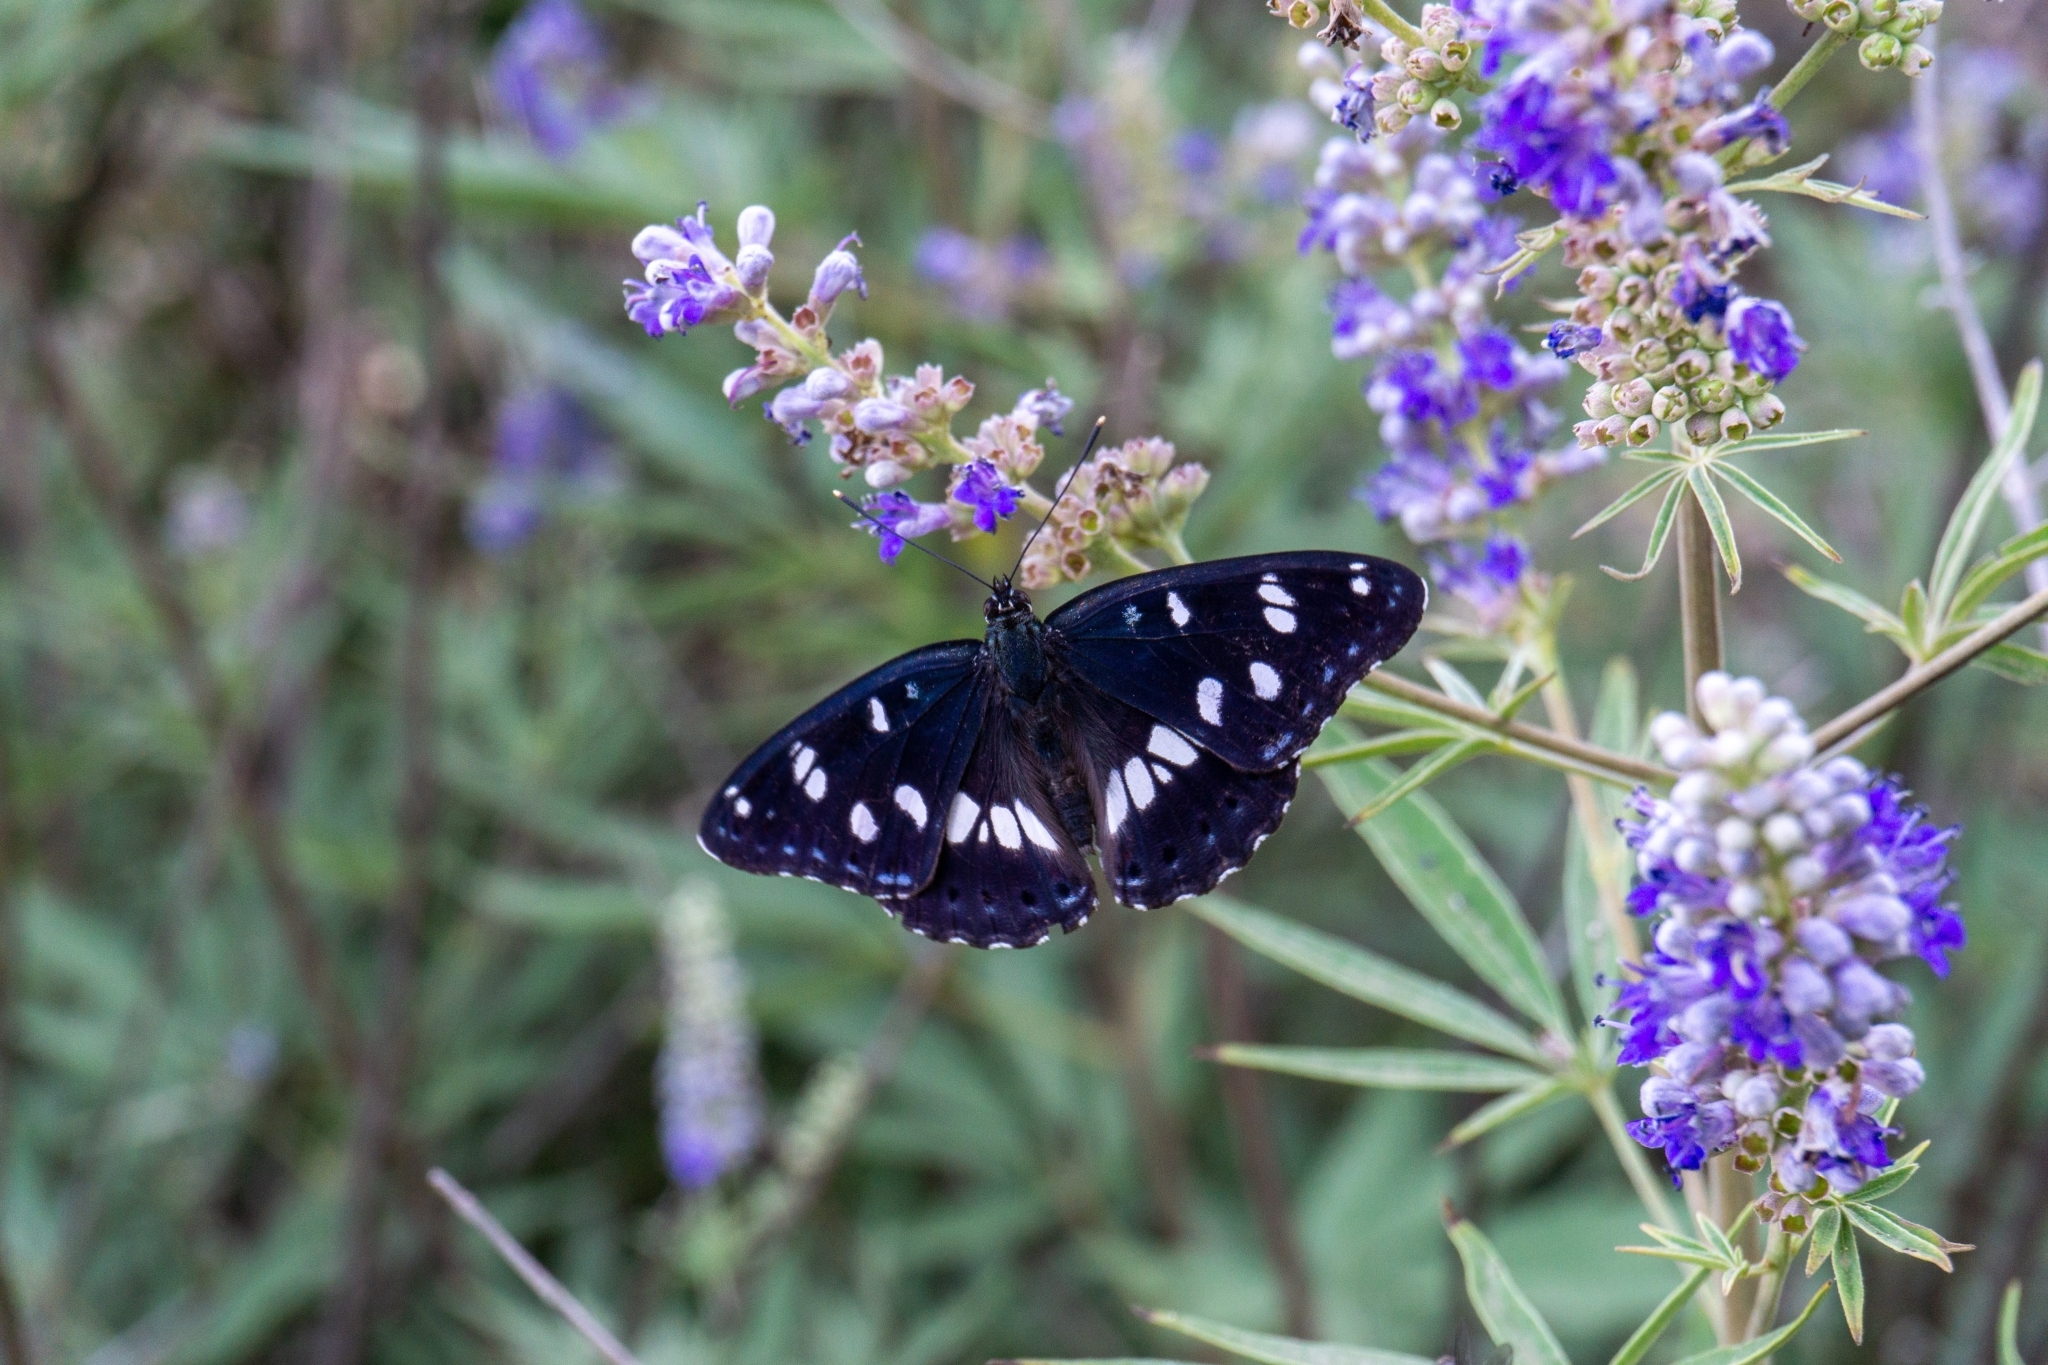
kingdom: Animalia
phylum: Arthropoda
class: Insecta
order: Lepidoptera
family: Nymphalidae
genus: Limenitis
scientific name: Limenitis reducta
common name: Southern white admiral
